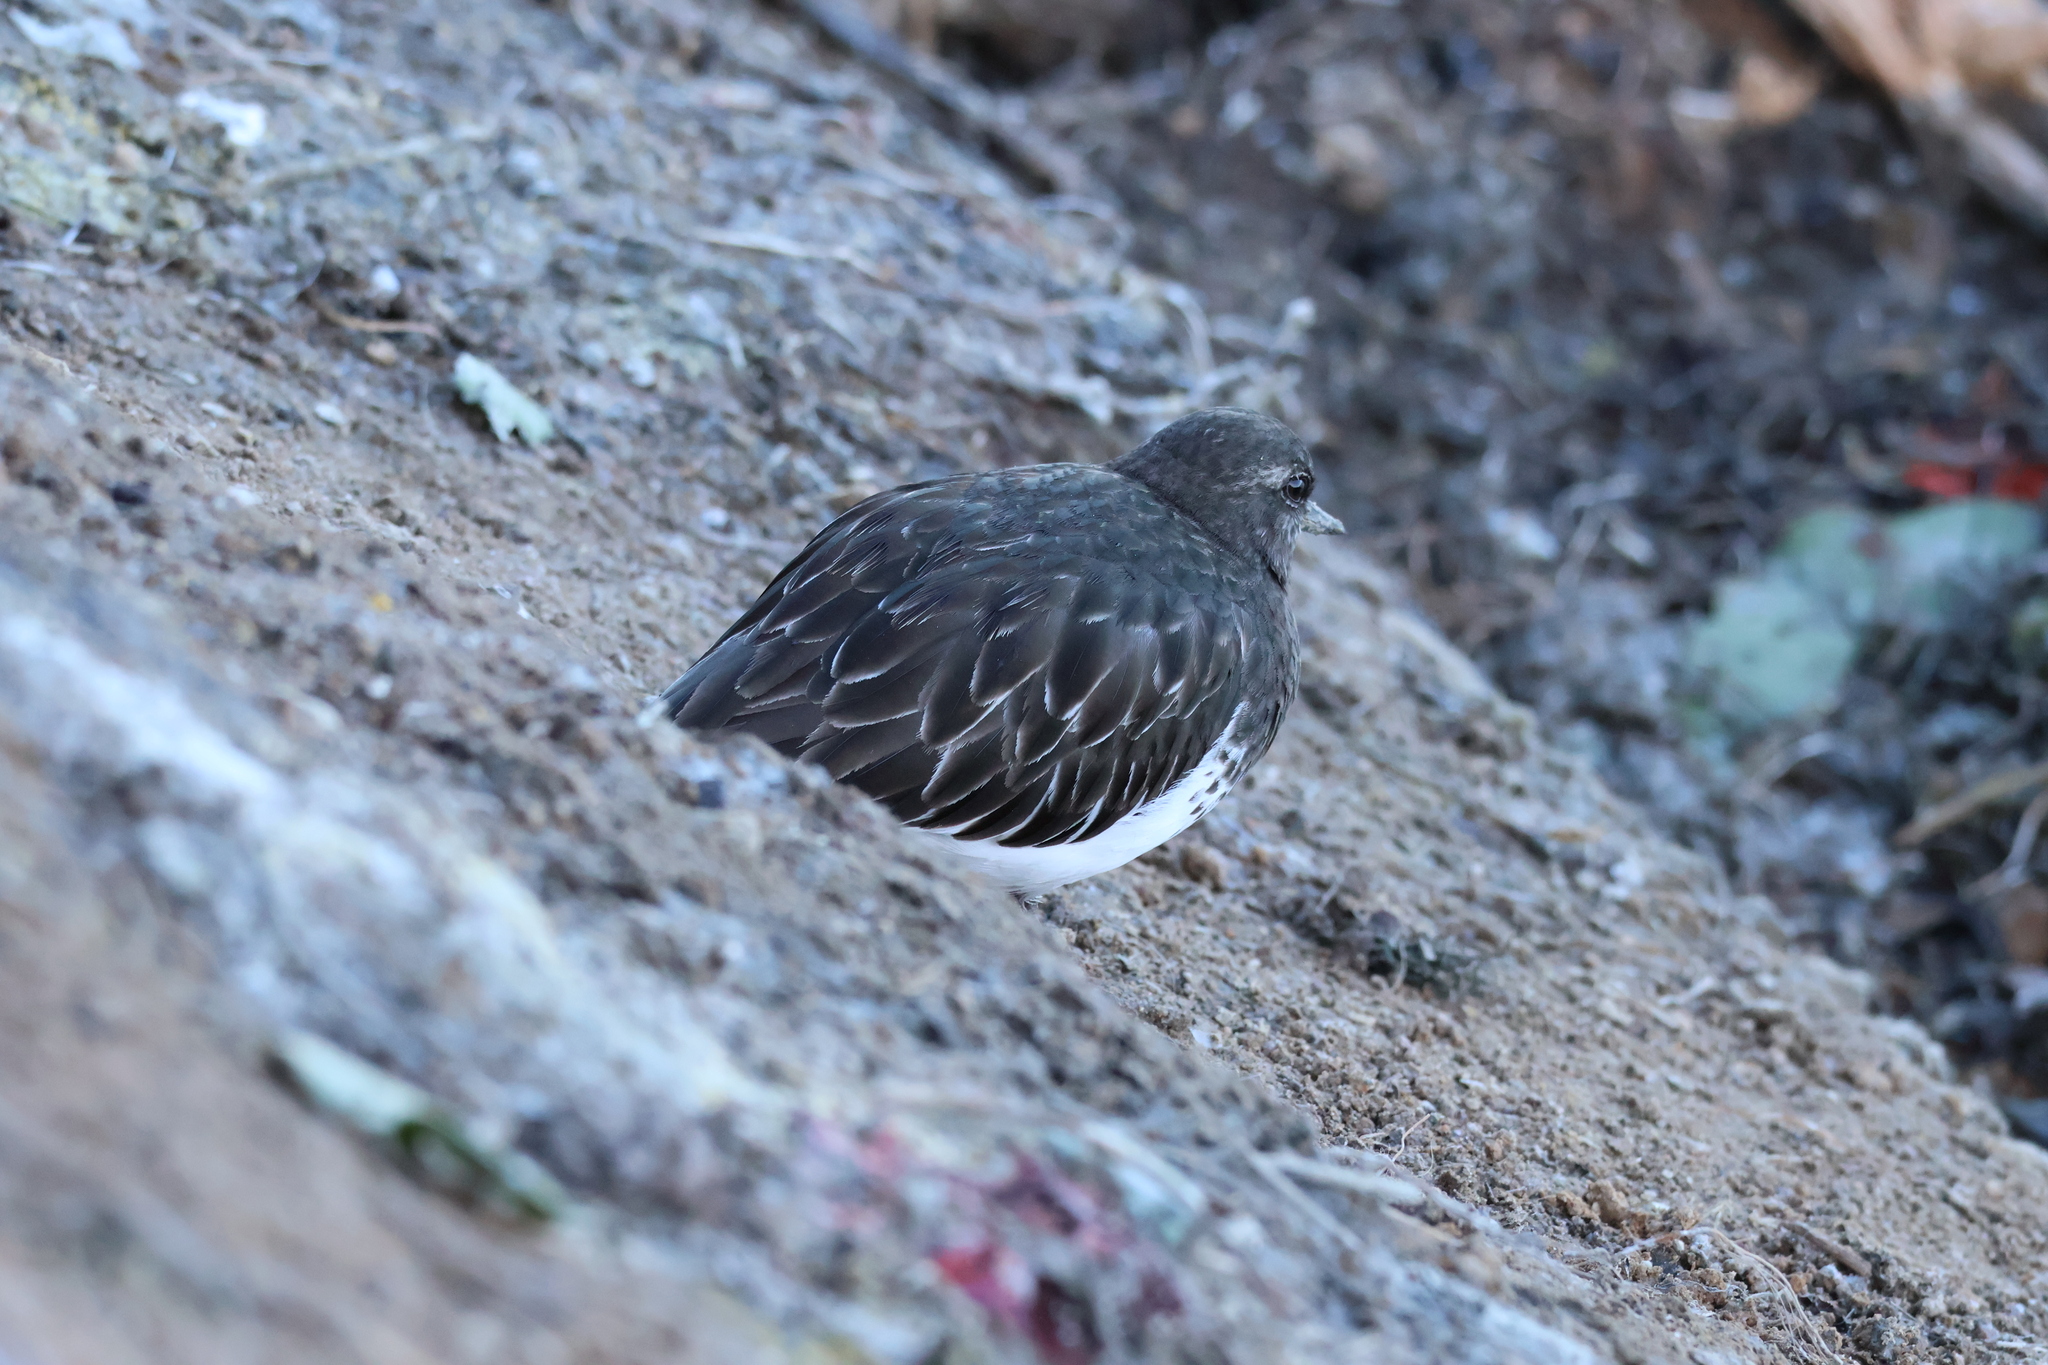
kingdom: Animalia
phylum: Chordata
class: Aves
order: Charadriiformes
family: Scolopacidae
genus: Arenaria
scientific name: Arenaria melanocephala
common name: Black turnstone
